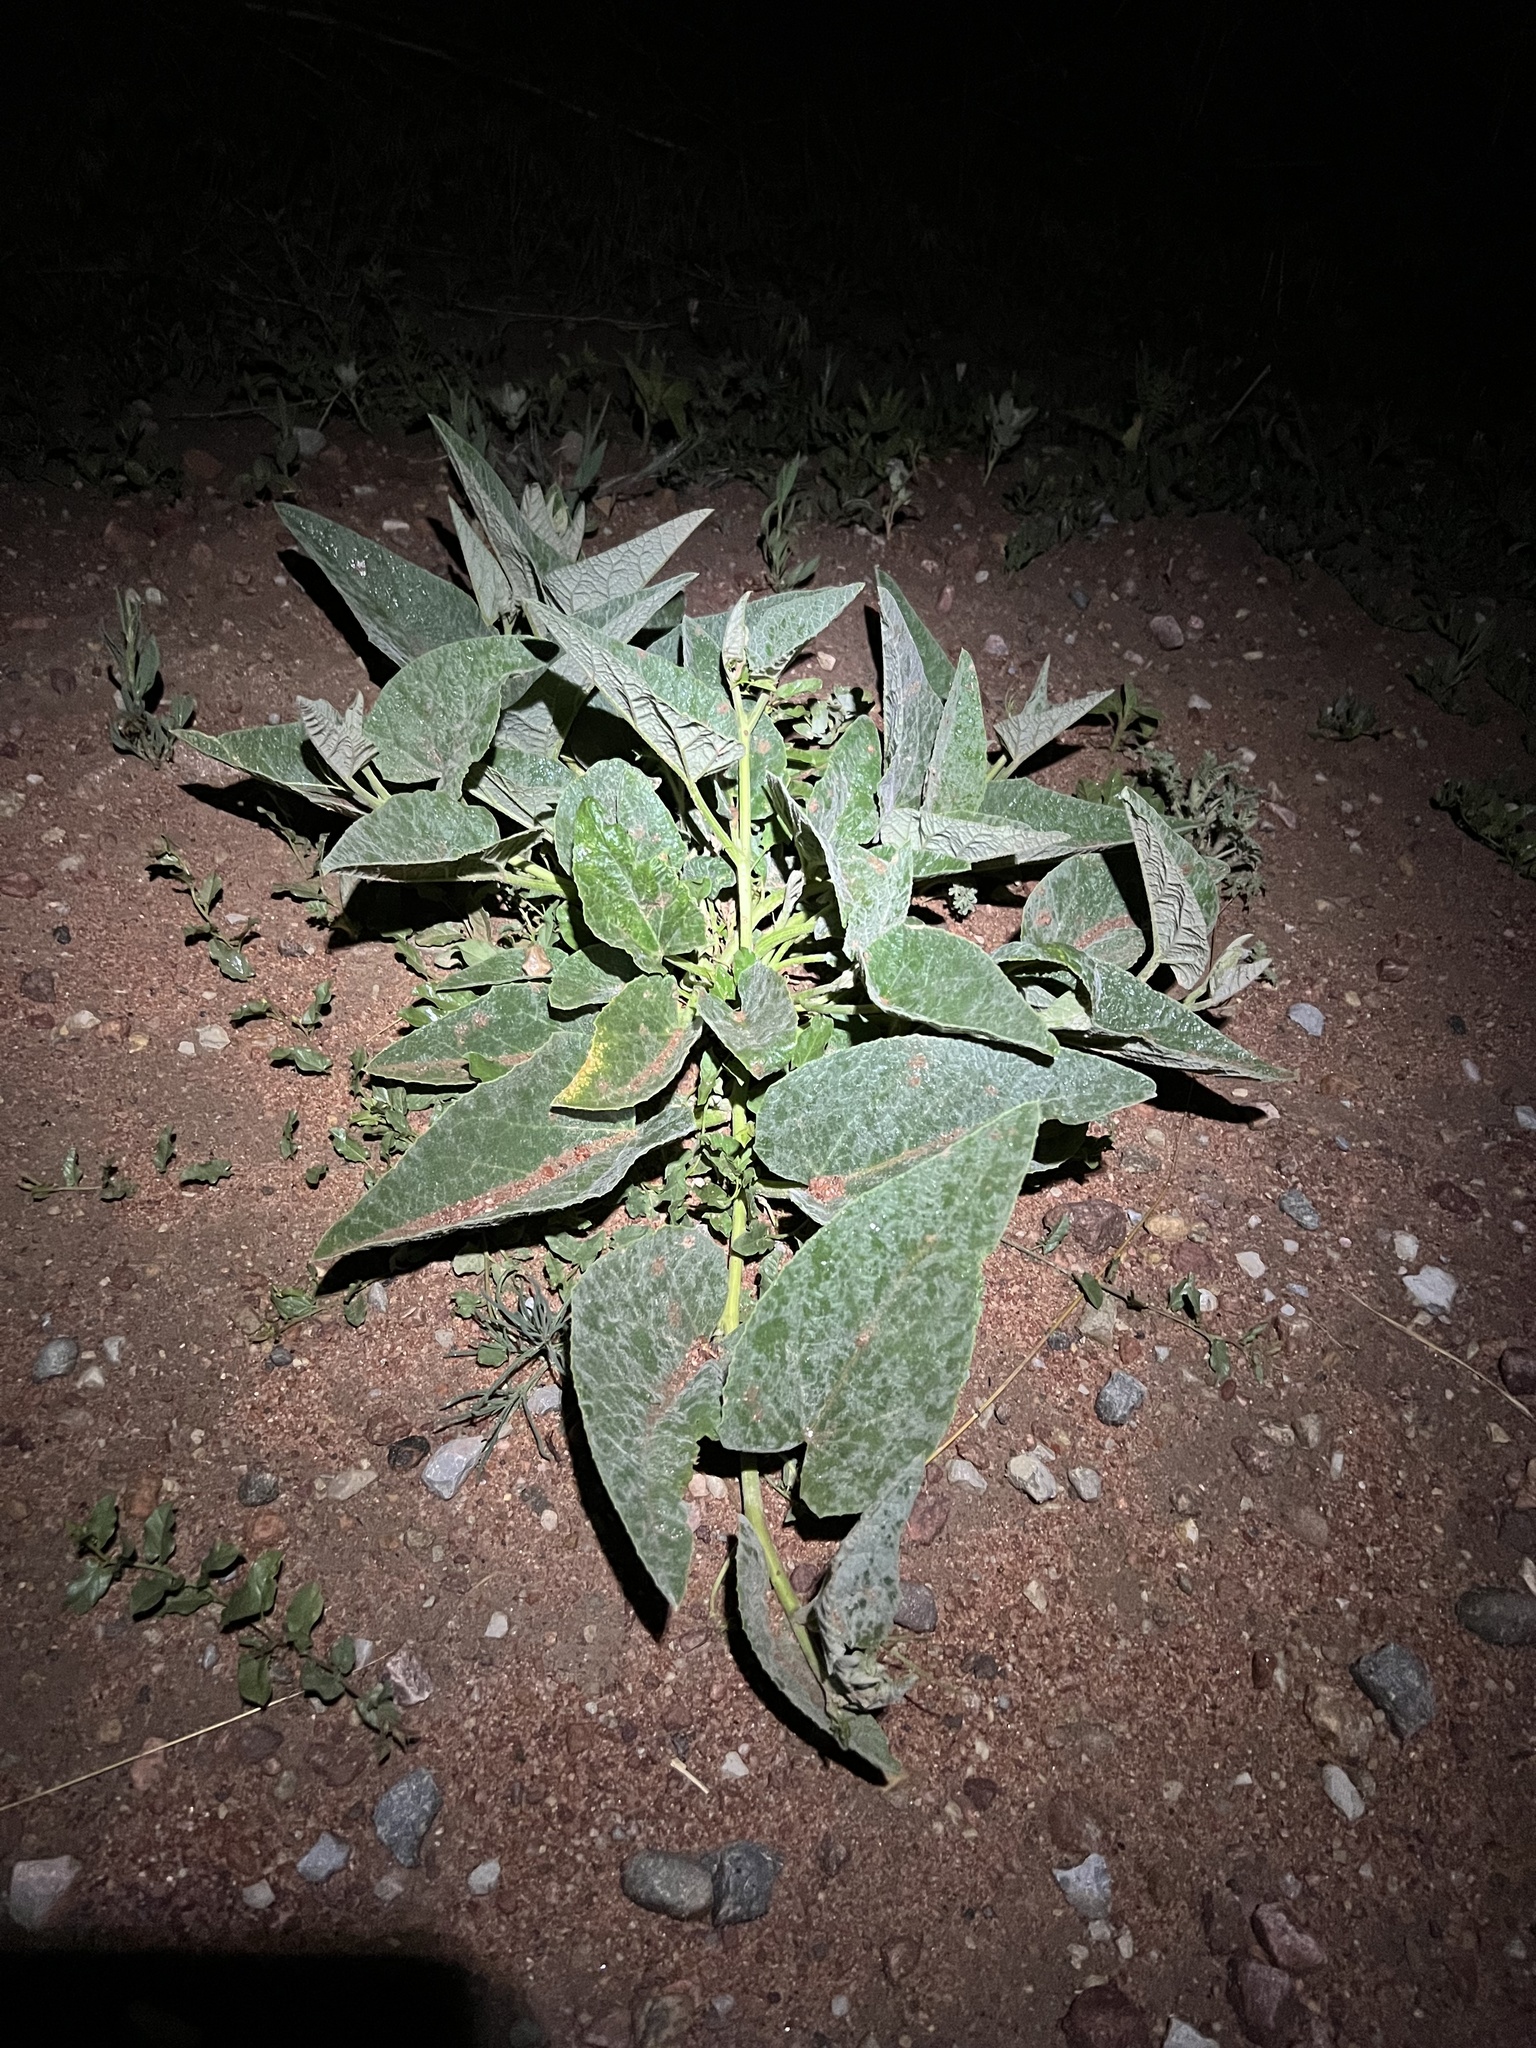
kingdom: Plantae
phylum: Tracheophyta
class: Magnoliopsida
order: Cucurbitales
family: Cucurbitaceae
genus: Cucurbita
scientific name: Cucurbita foetidissima
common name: Buffalo gourd
